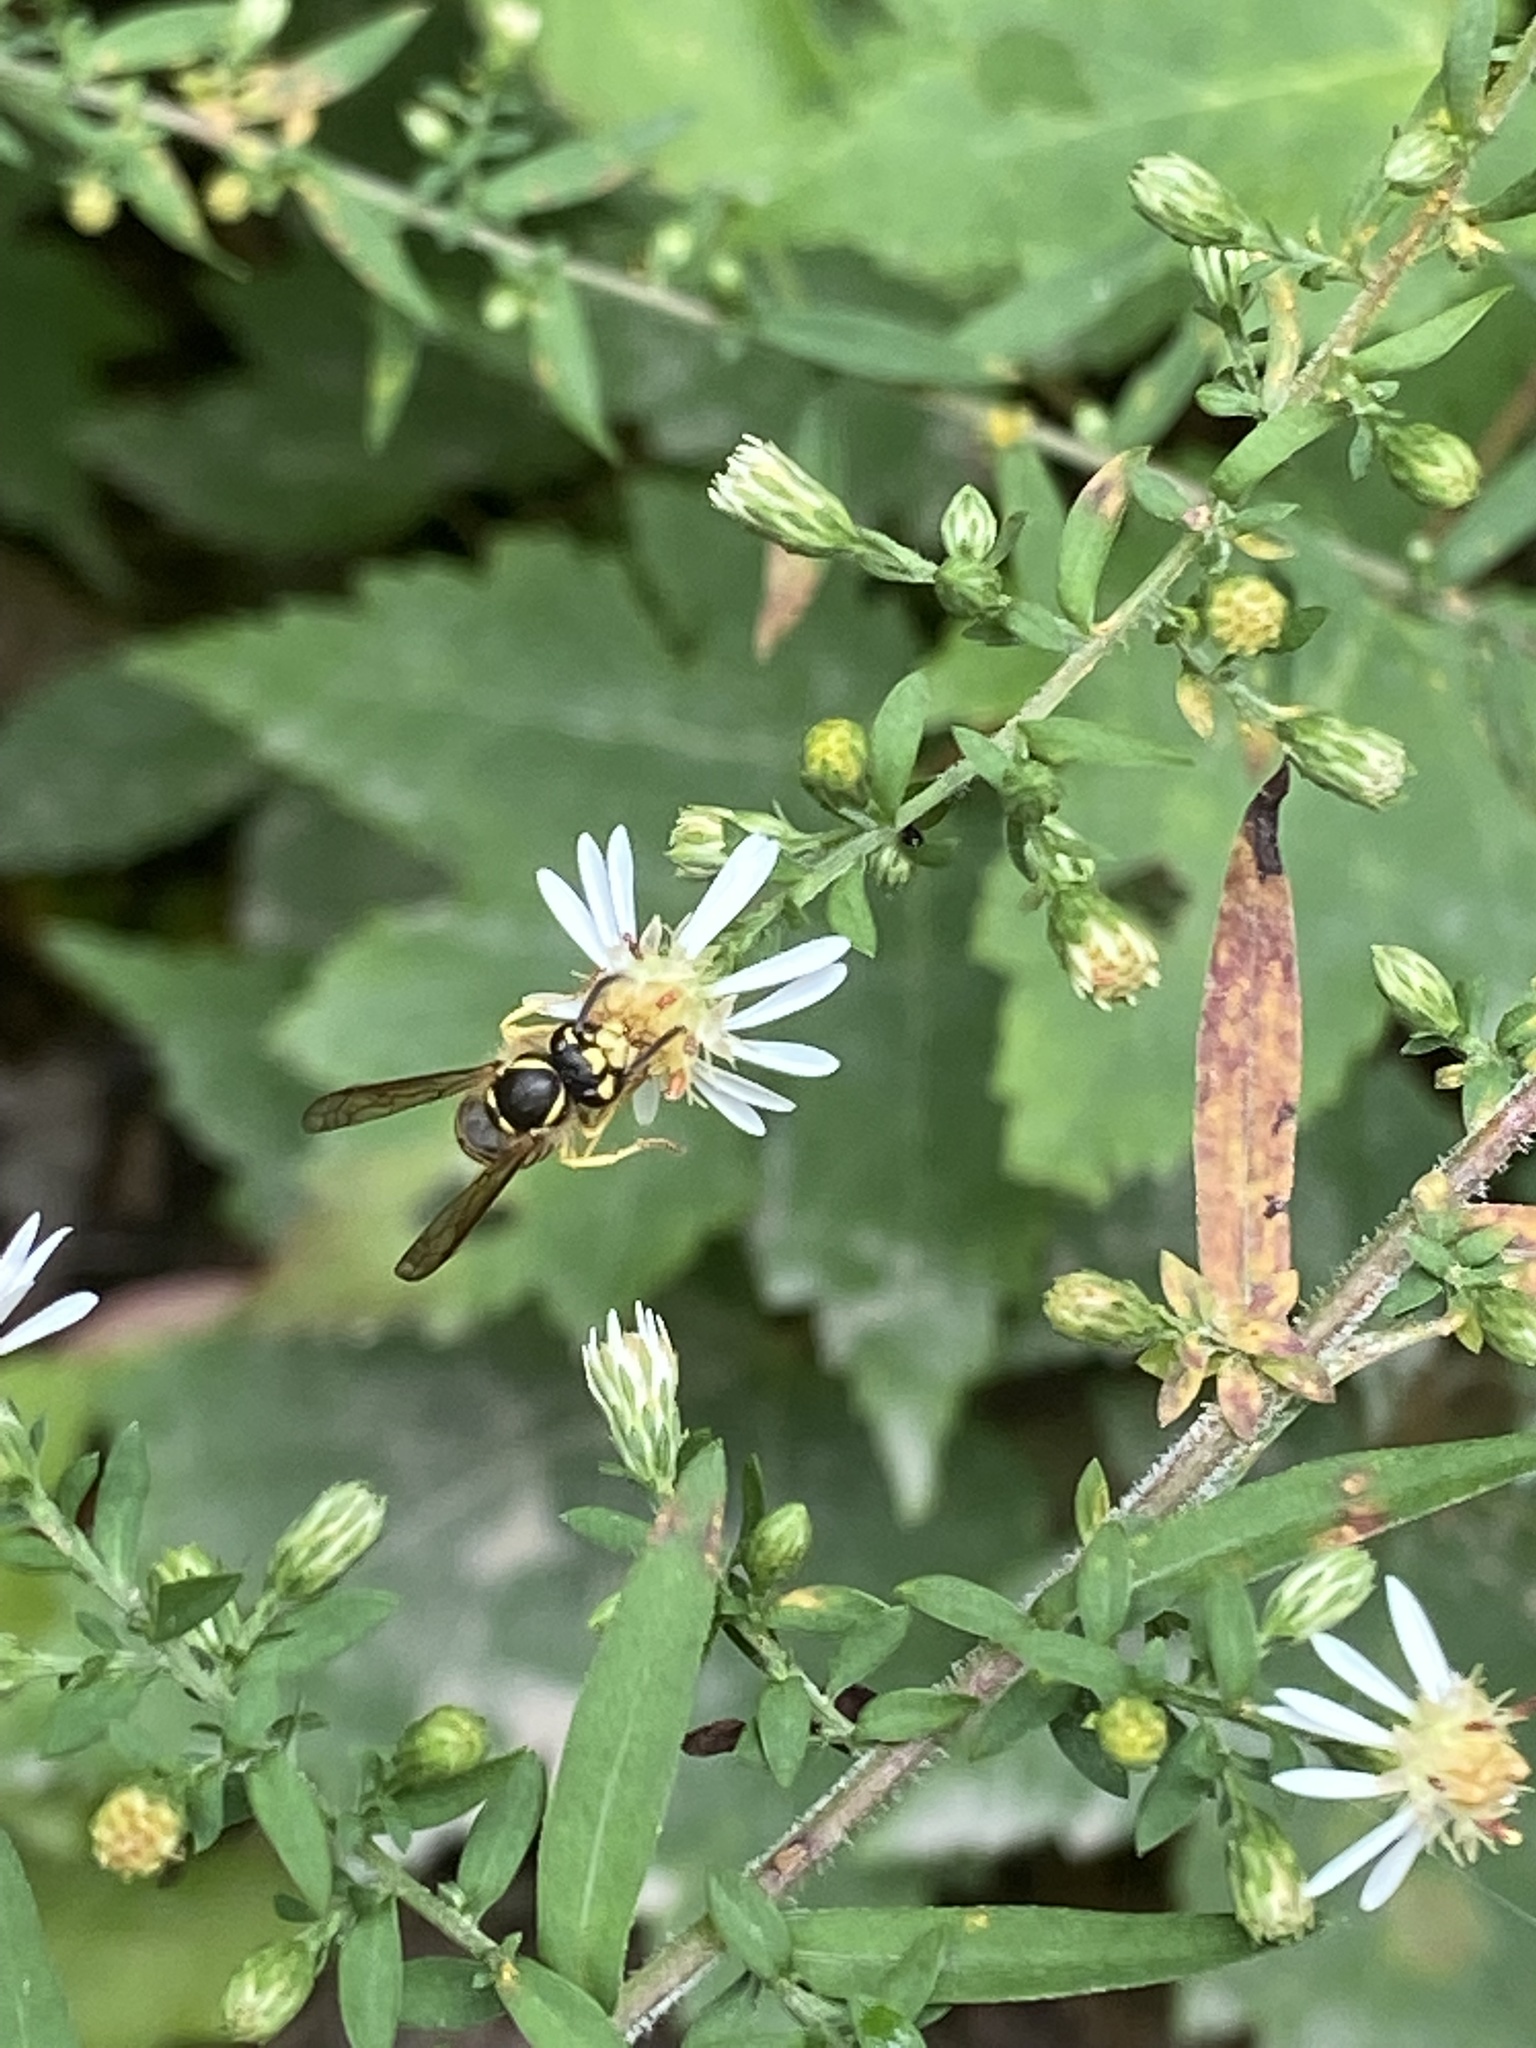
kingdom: Animalia
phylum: Arthropoda
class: Insecta
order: Hymenoptera
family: Vespidae
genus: Vespula
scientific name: Vespula maculifrons
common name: Eastern yellowjacket
